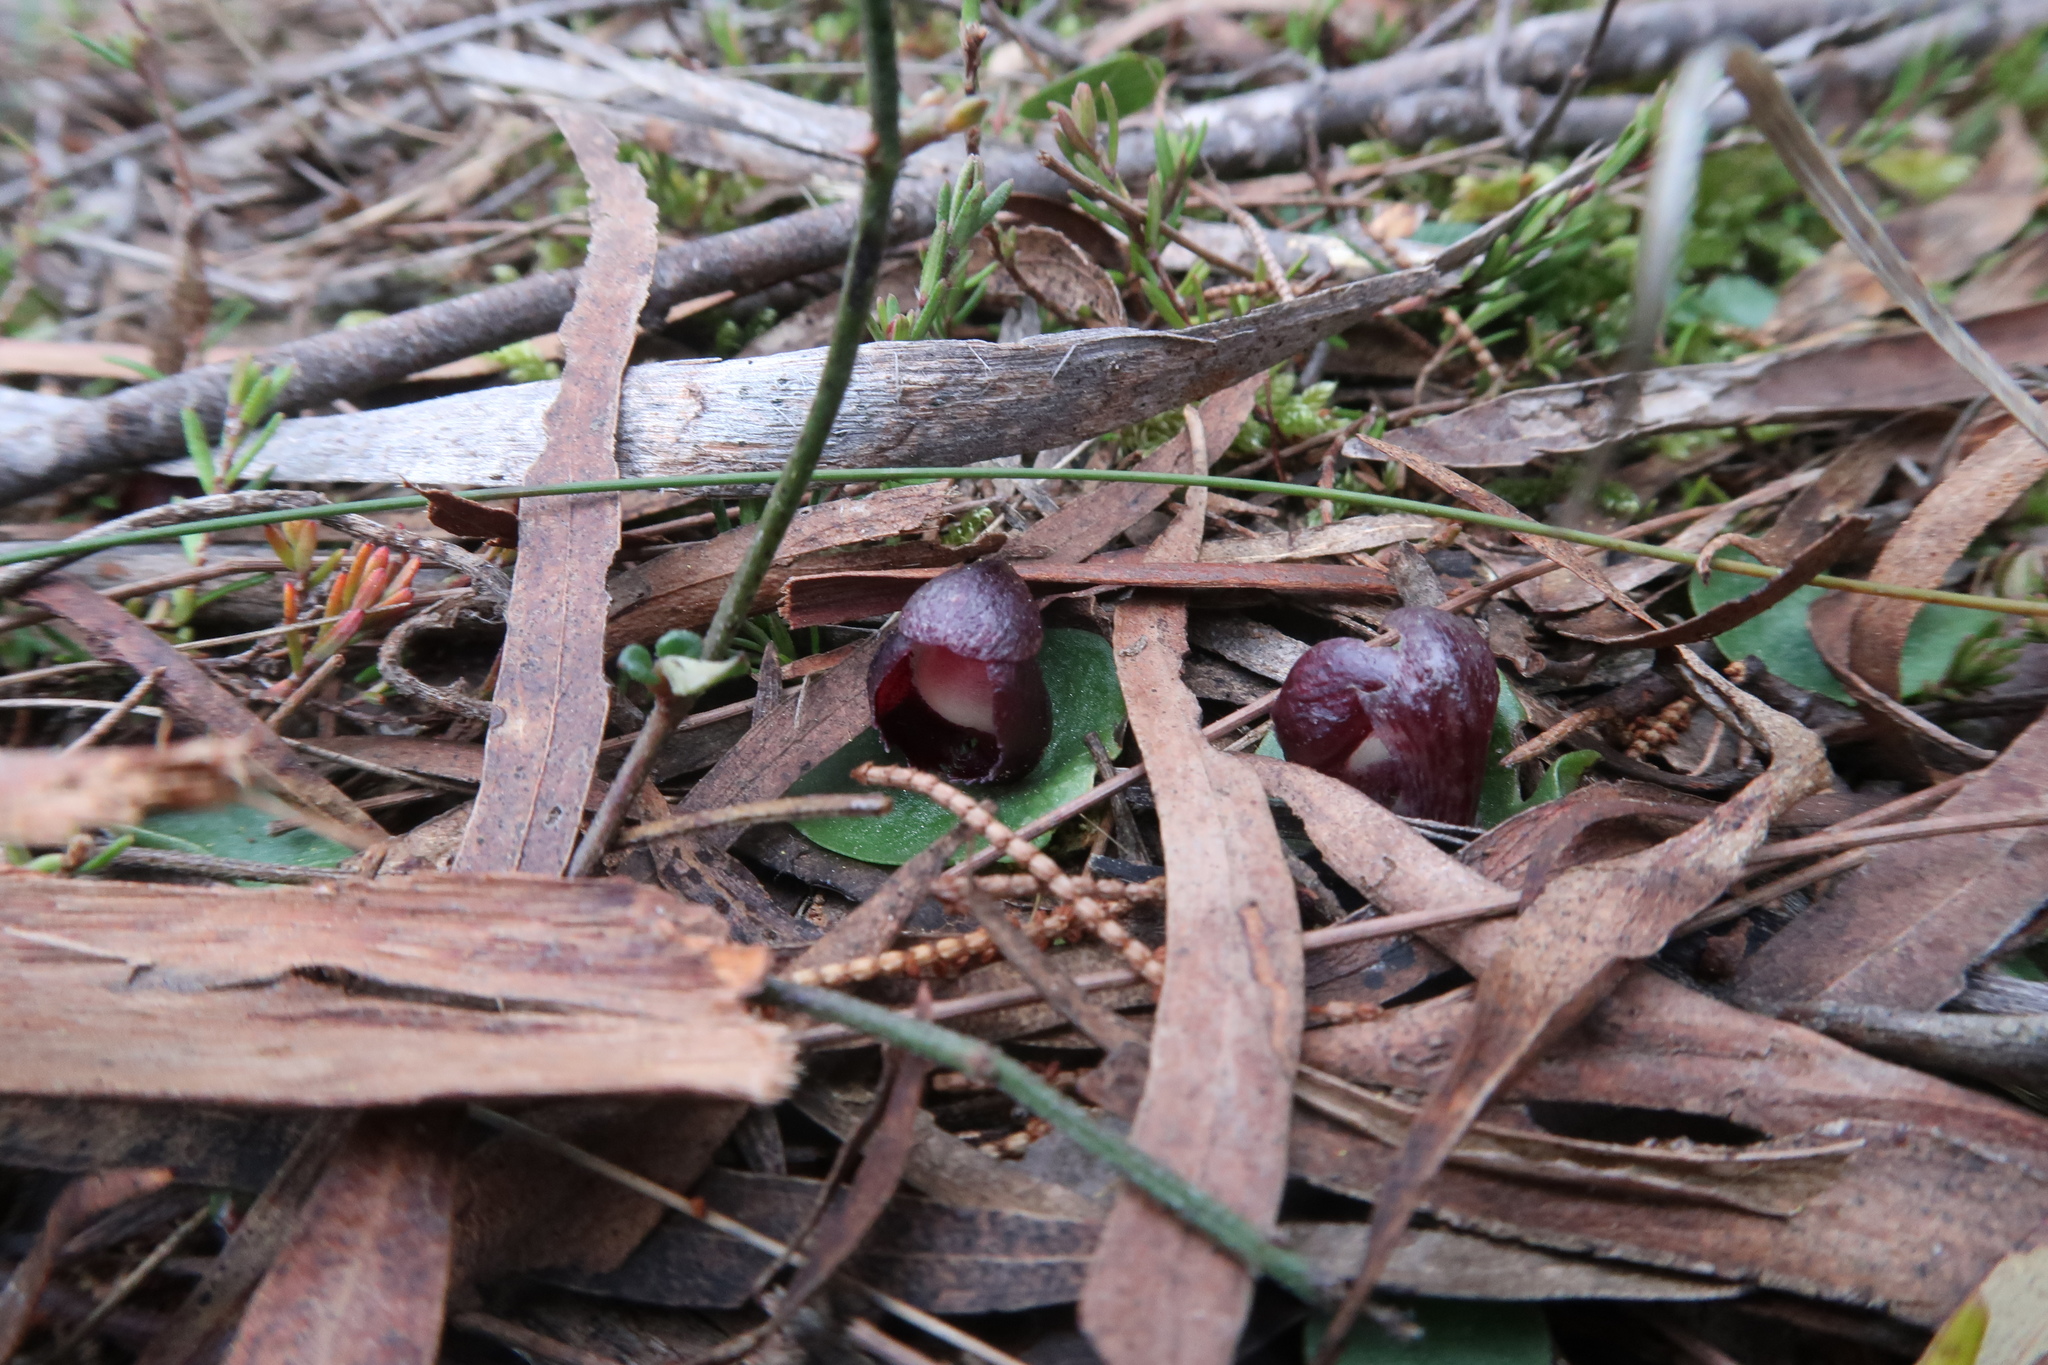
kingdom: Plantae
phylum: Tracheophyta
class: Liliopsida
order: Asparagales
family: Orchidaceae
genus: Corybas
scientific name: Corybas incurvus
